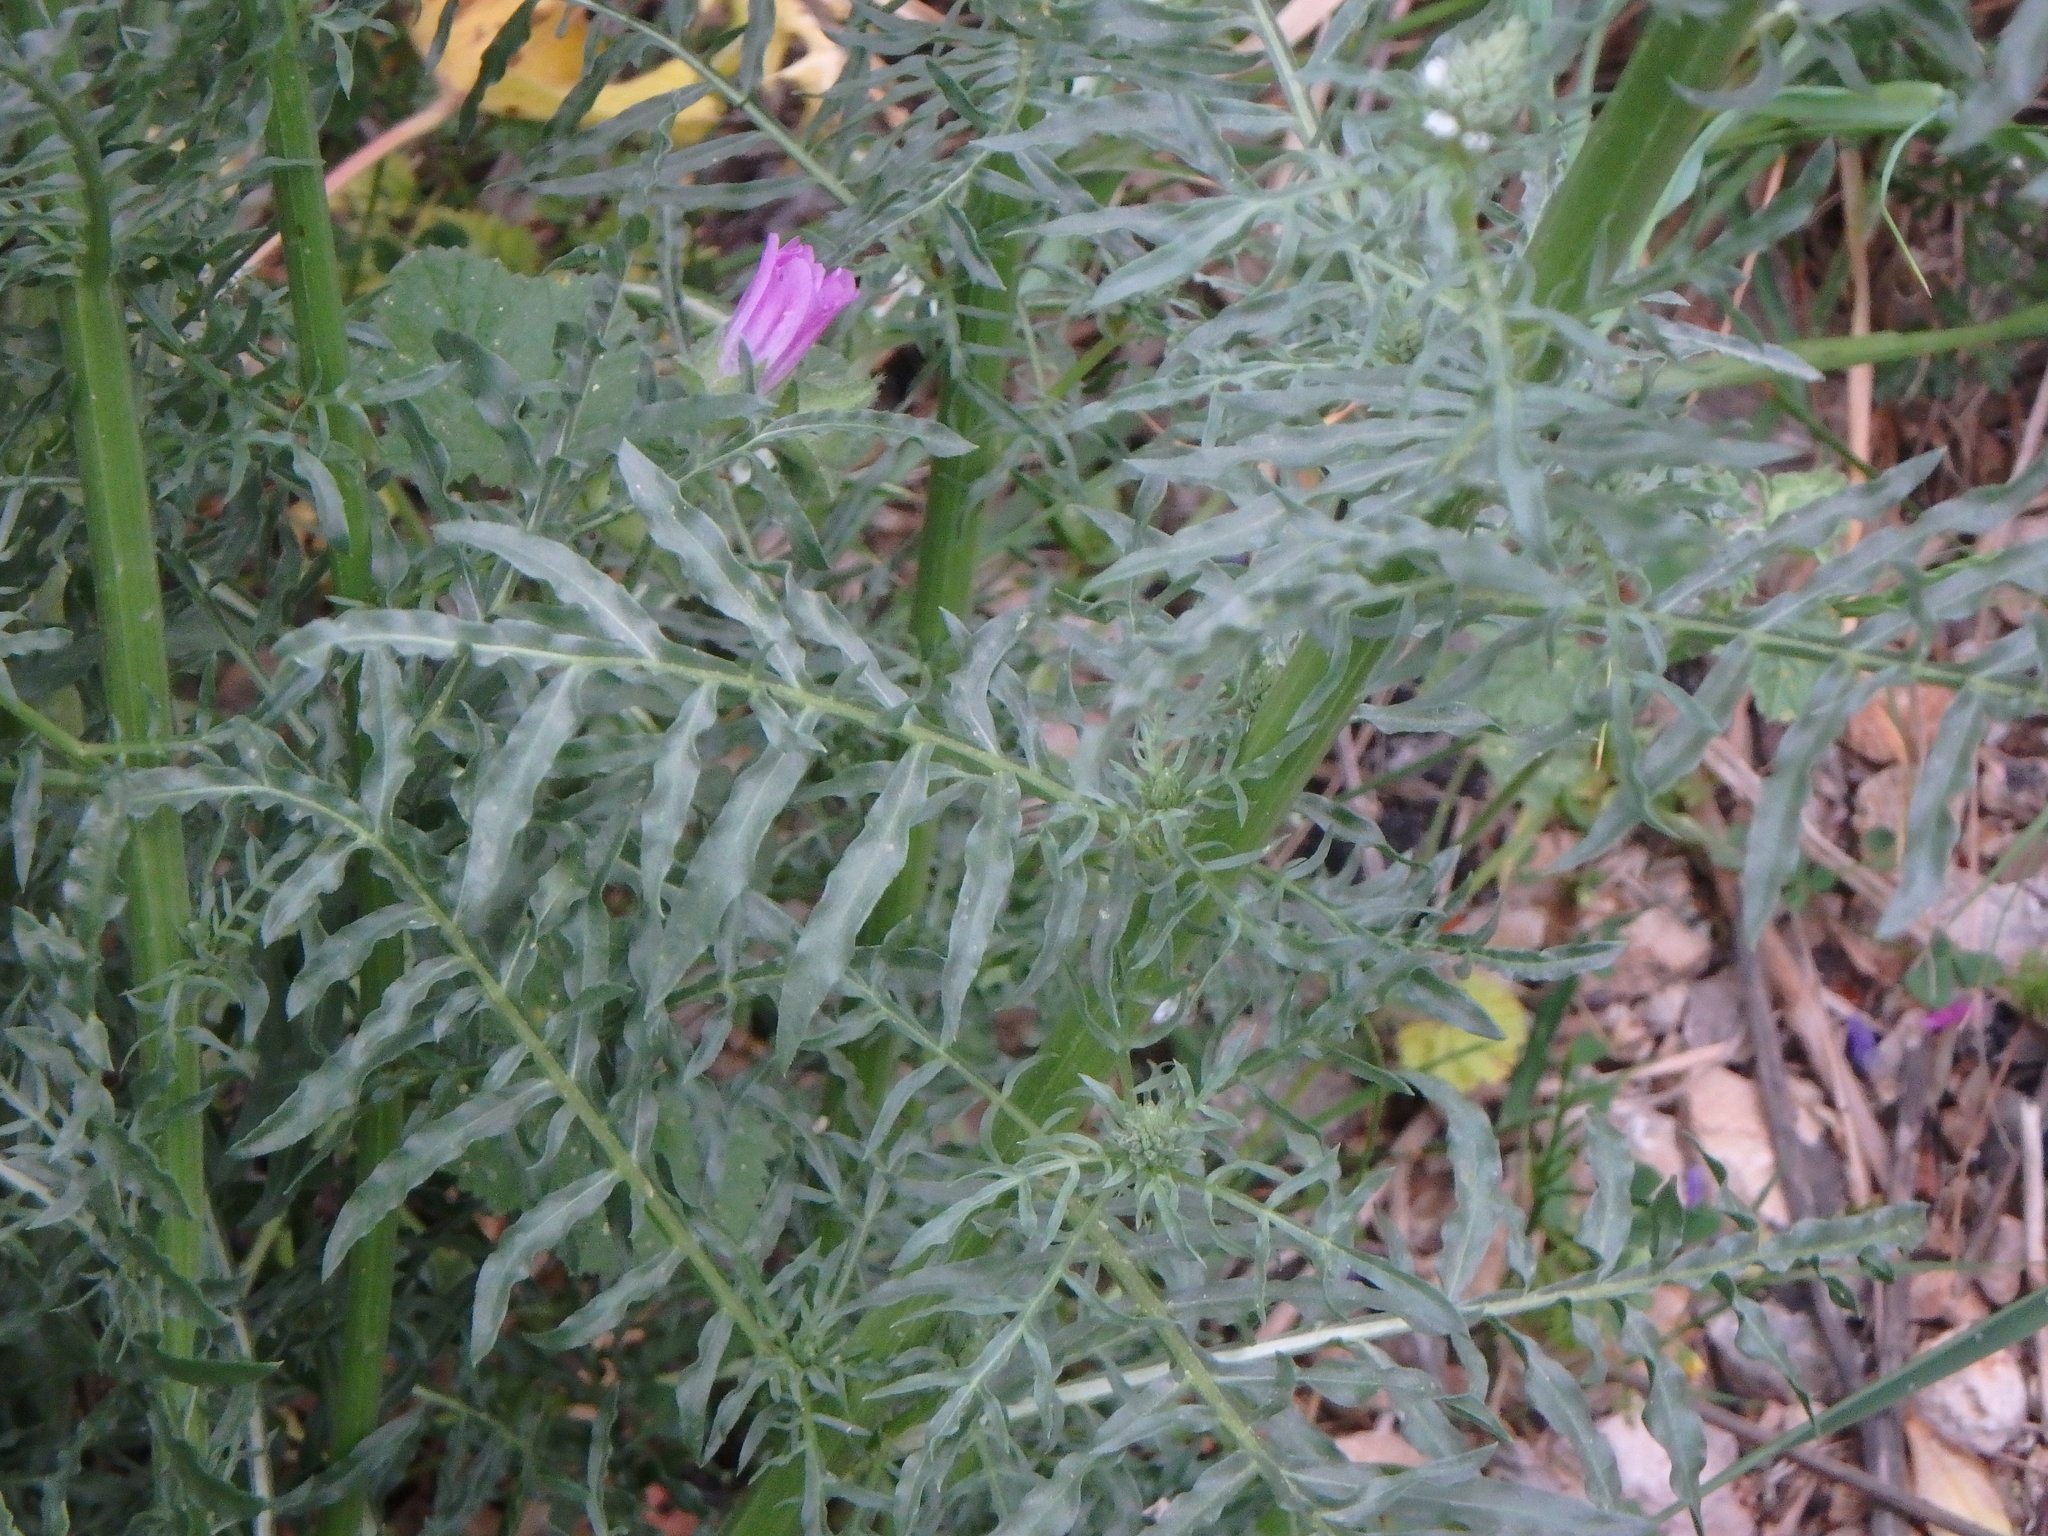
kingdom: Plantae
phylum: Tracheophyta
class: Magnoliopsida
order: Brassicales
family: Resedaceae
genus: Reseda
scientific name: Reseda alba
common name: White mignonette
